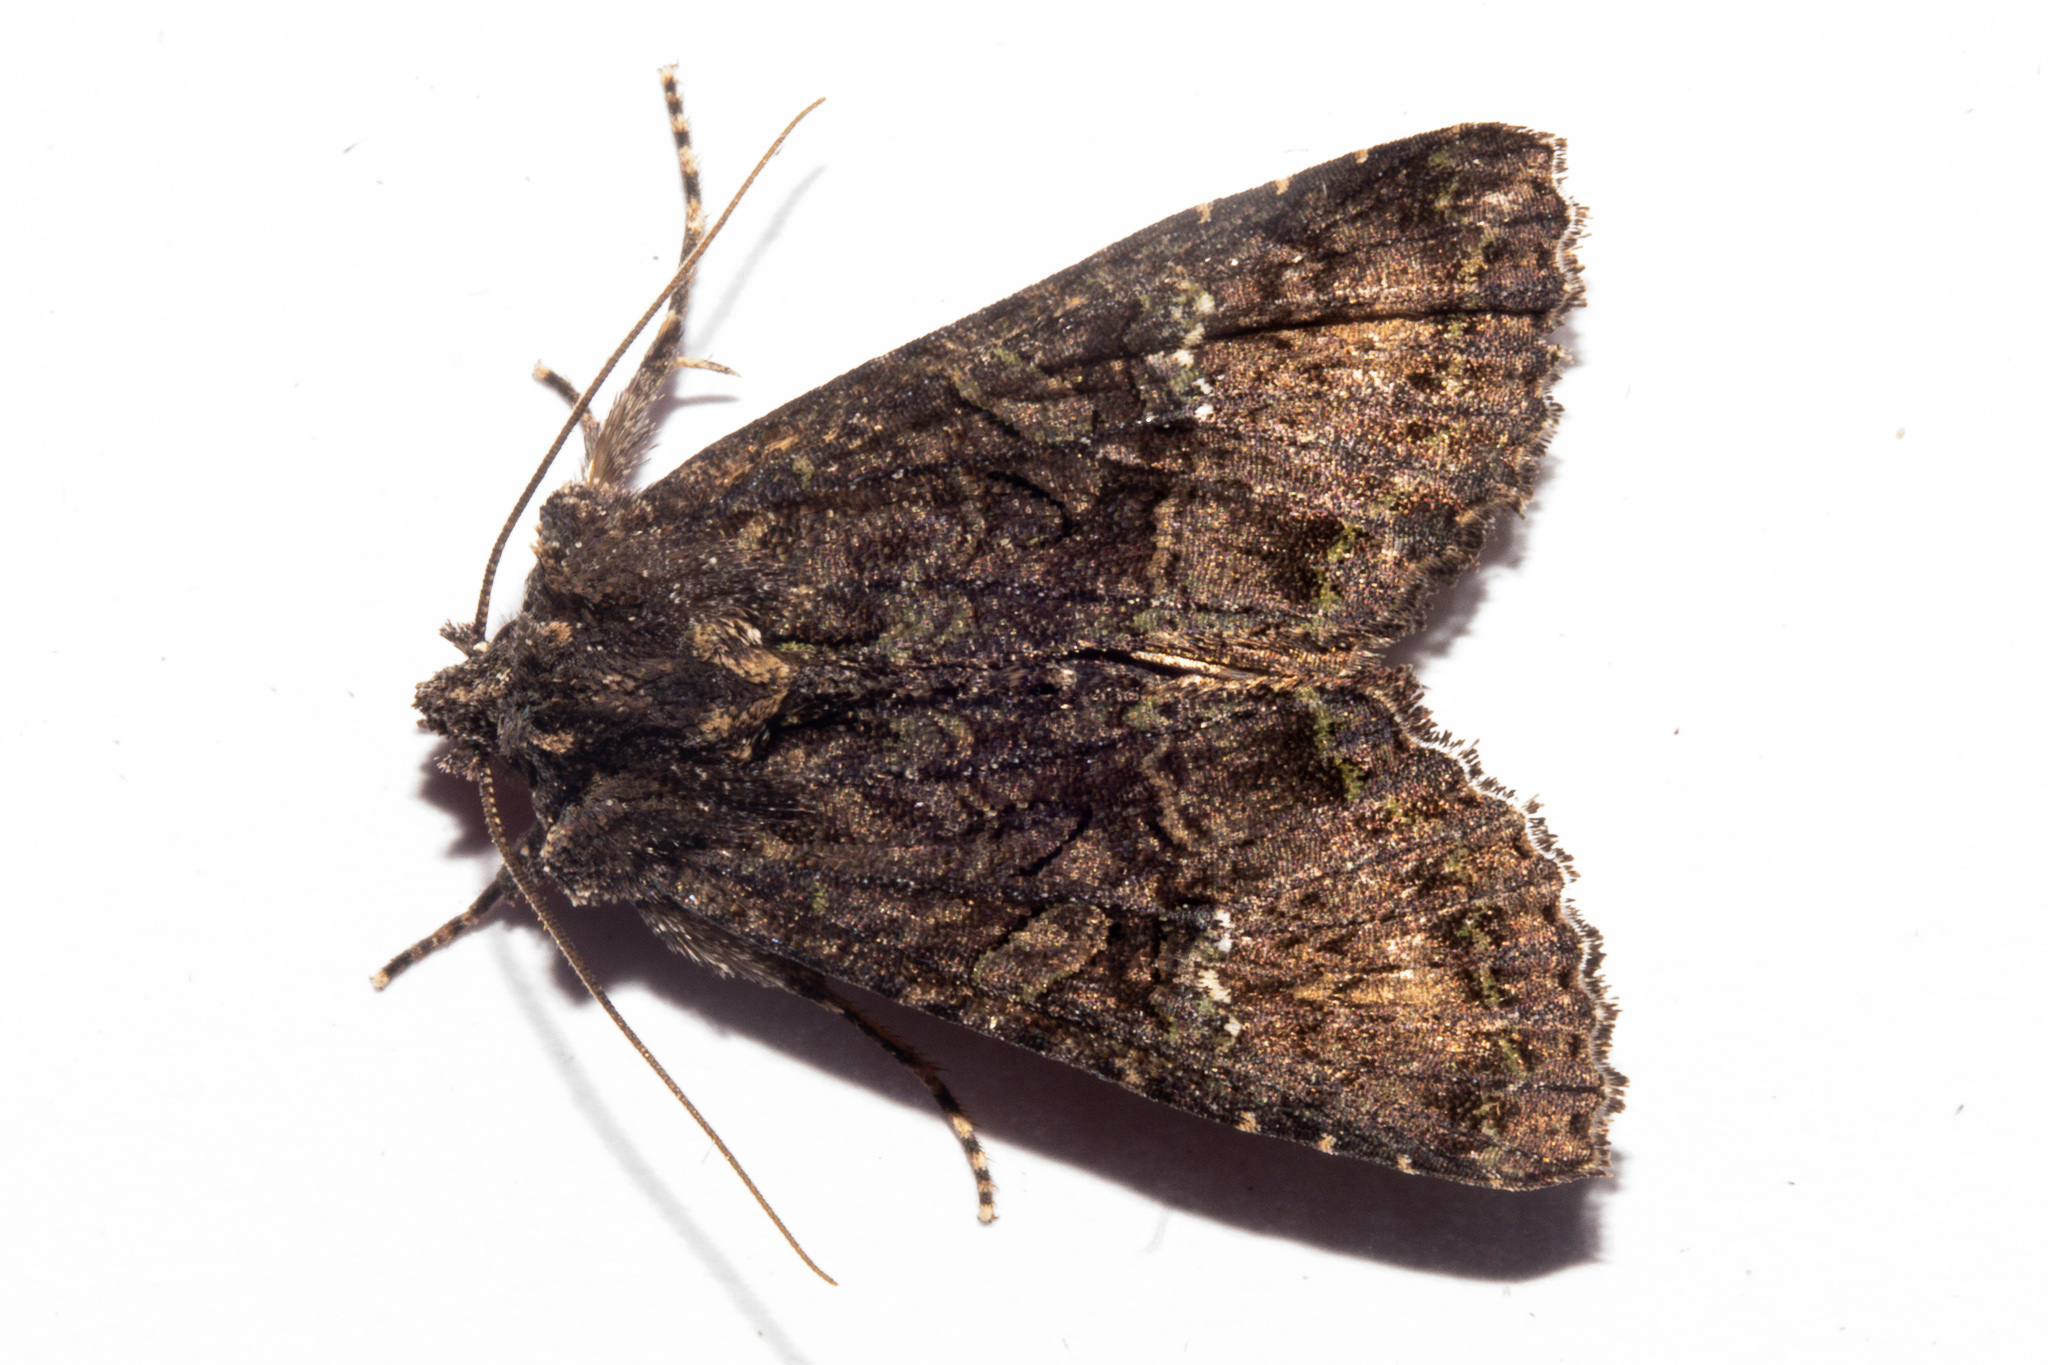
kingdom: Animalia
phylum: Arthropoda
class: Insecta
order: Lepidoptera
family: Noctuidae
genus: Meterana
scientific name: Meterana ochthistis
